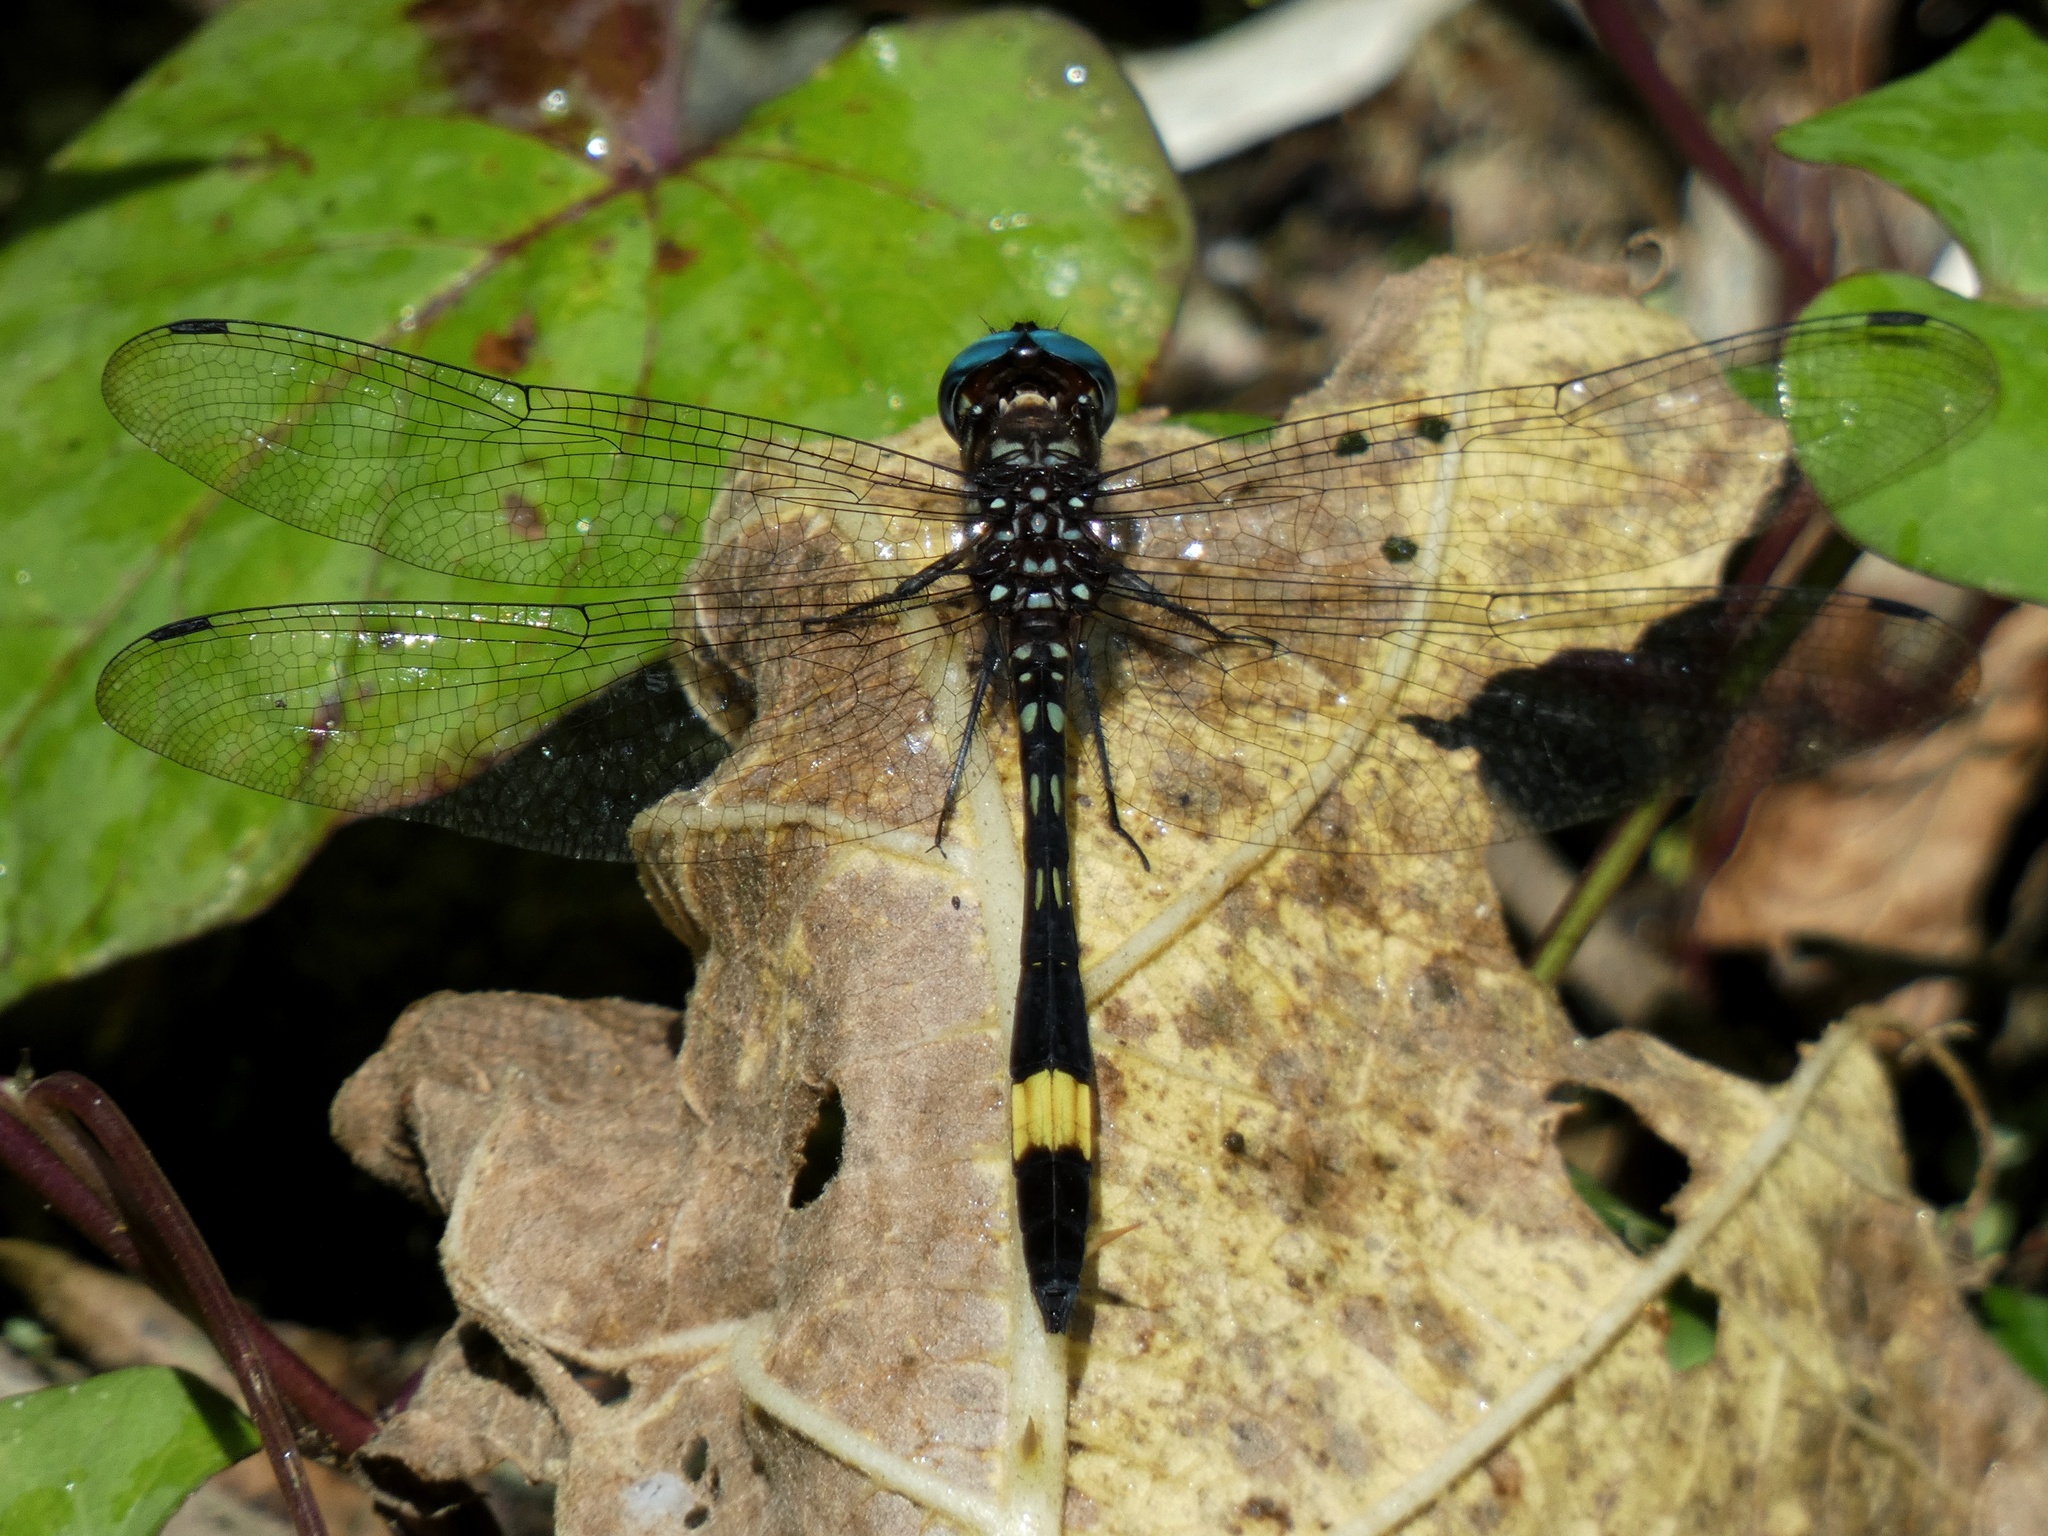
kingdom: Animalia
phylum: Arthropoda
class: Insecta
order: Odonata
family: Libellulidae
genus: Brechmorhoga
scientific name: Brechmorhoga rapax
